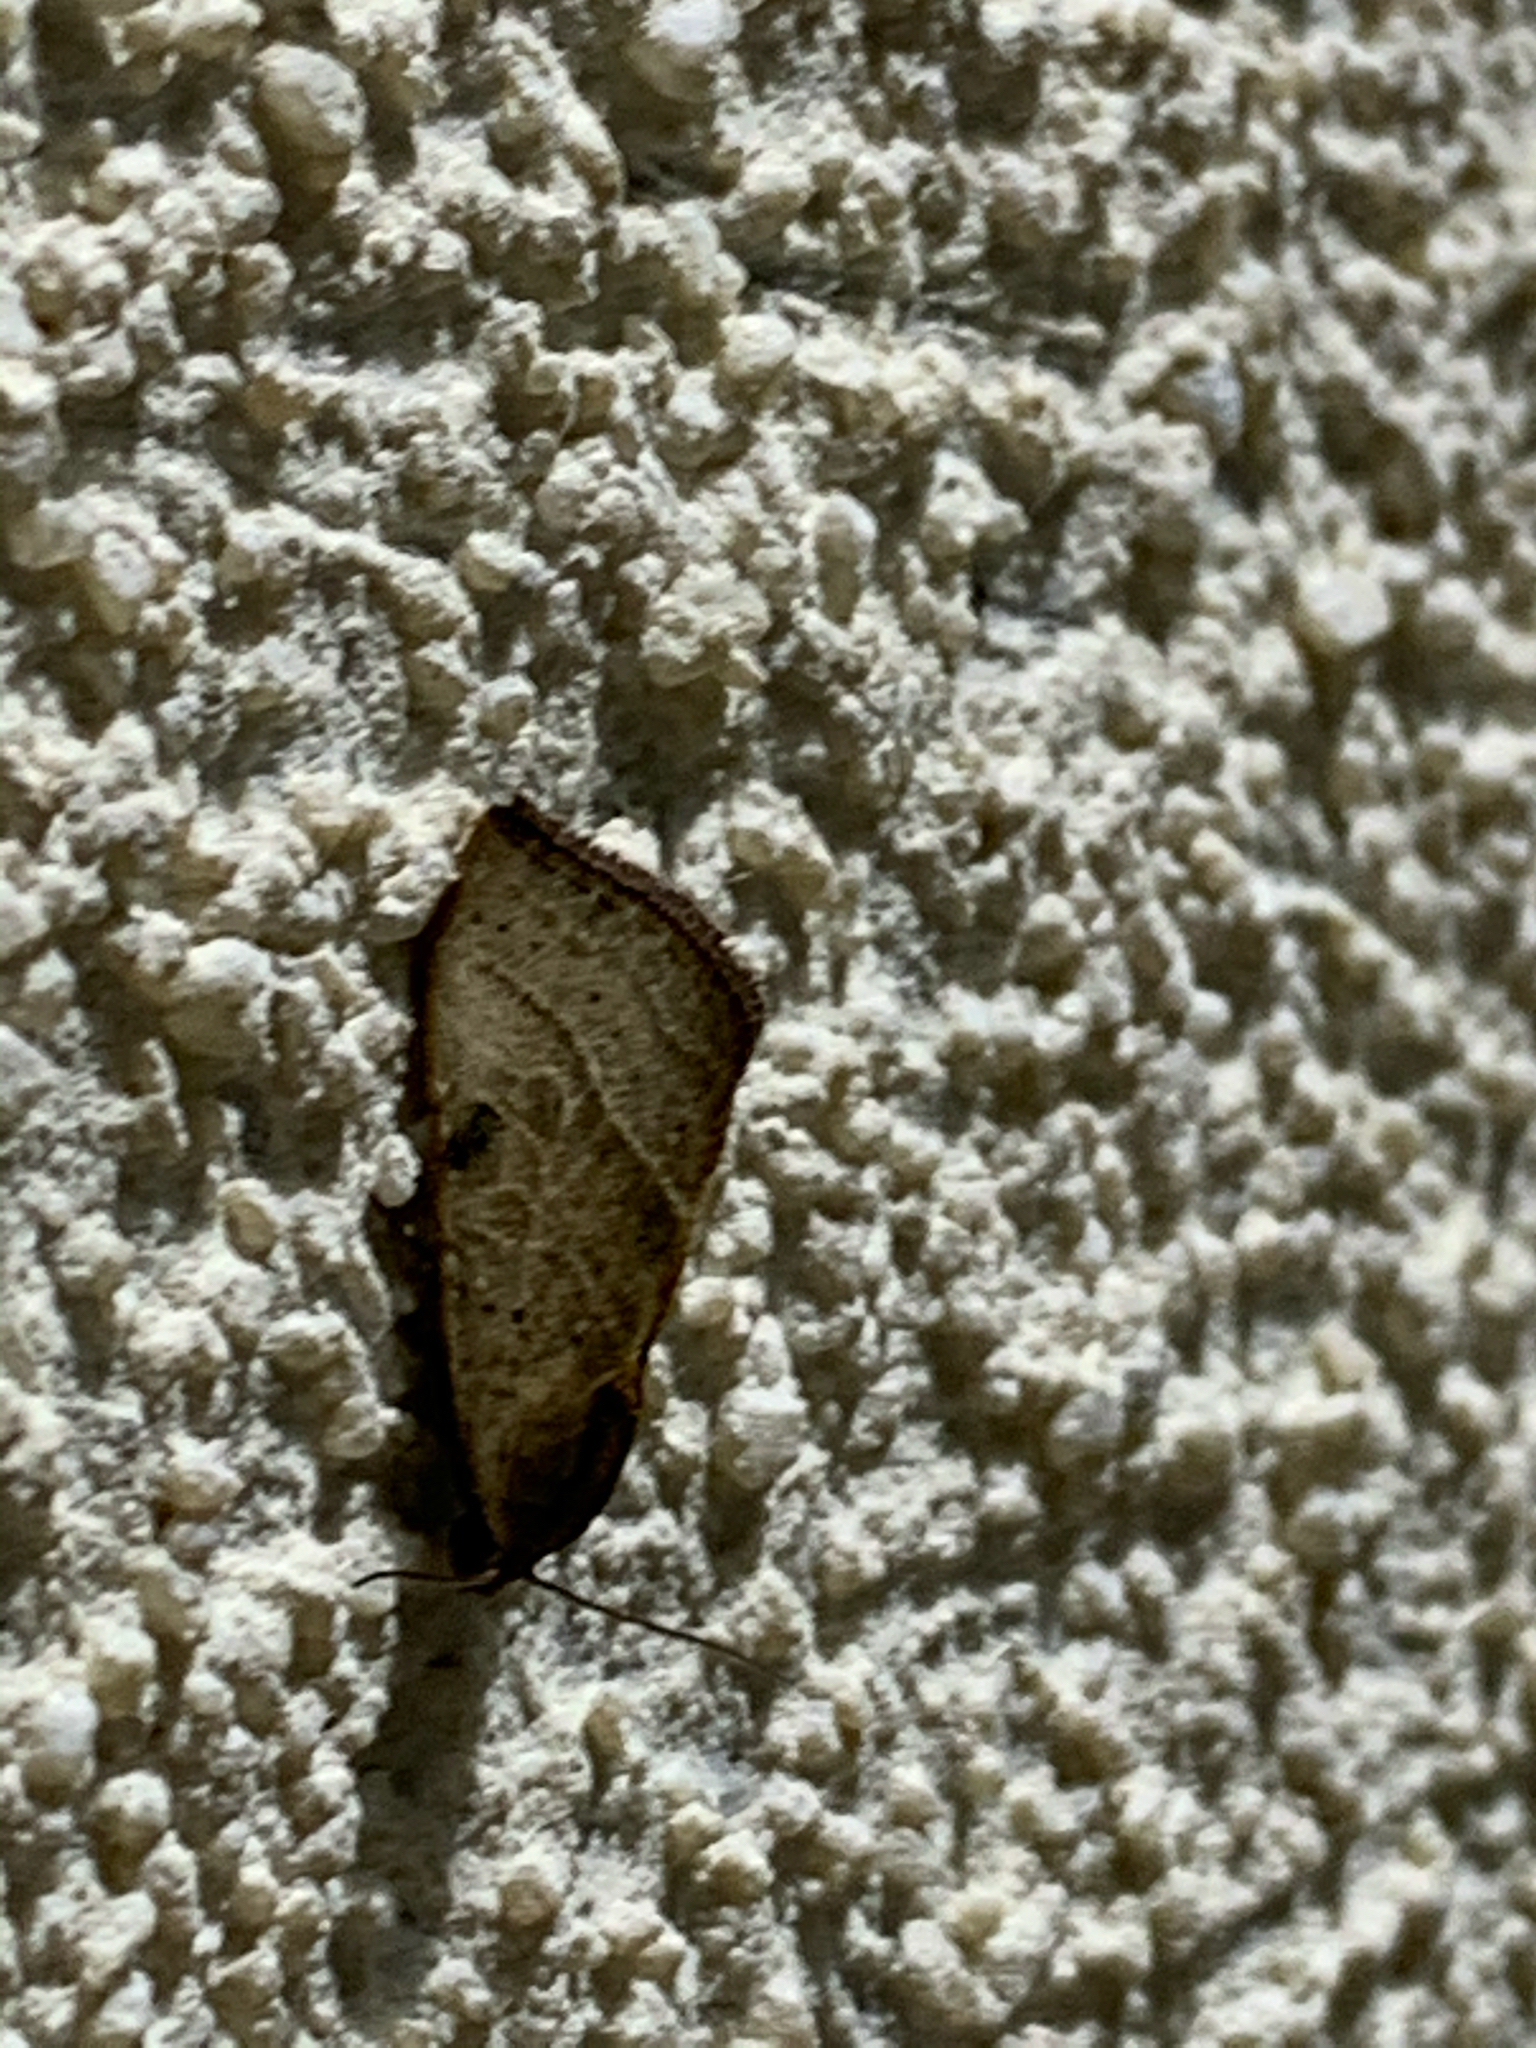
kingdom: Animalia
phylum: Arthropoda
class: Insecta
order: Lepidoptera
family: Noctuidae
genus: Galgula
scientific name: Galgula partita
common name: Wedgeling
